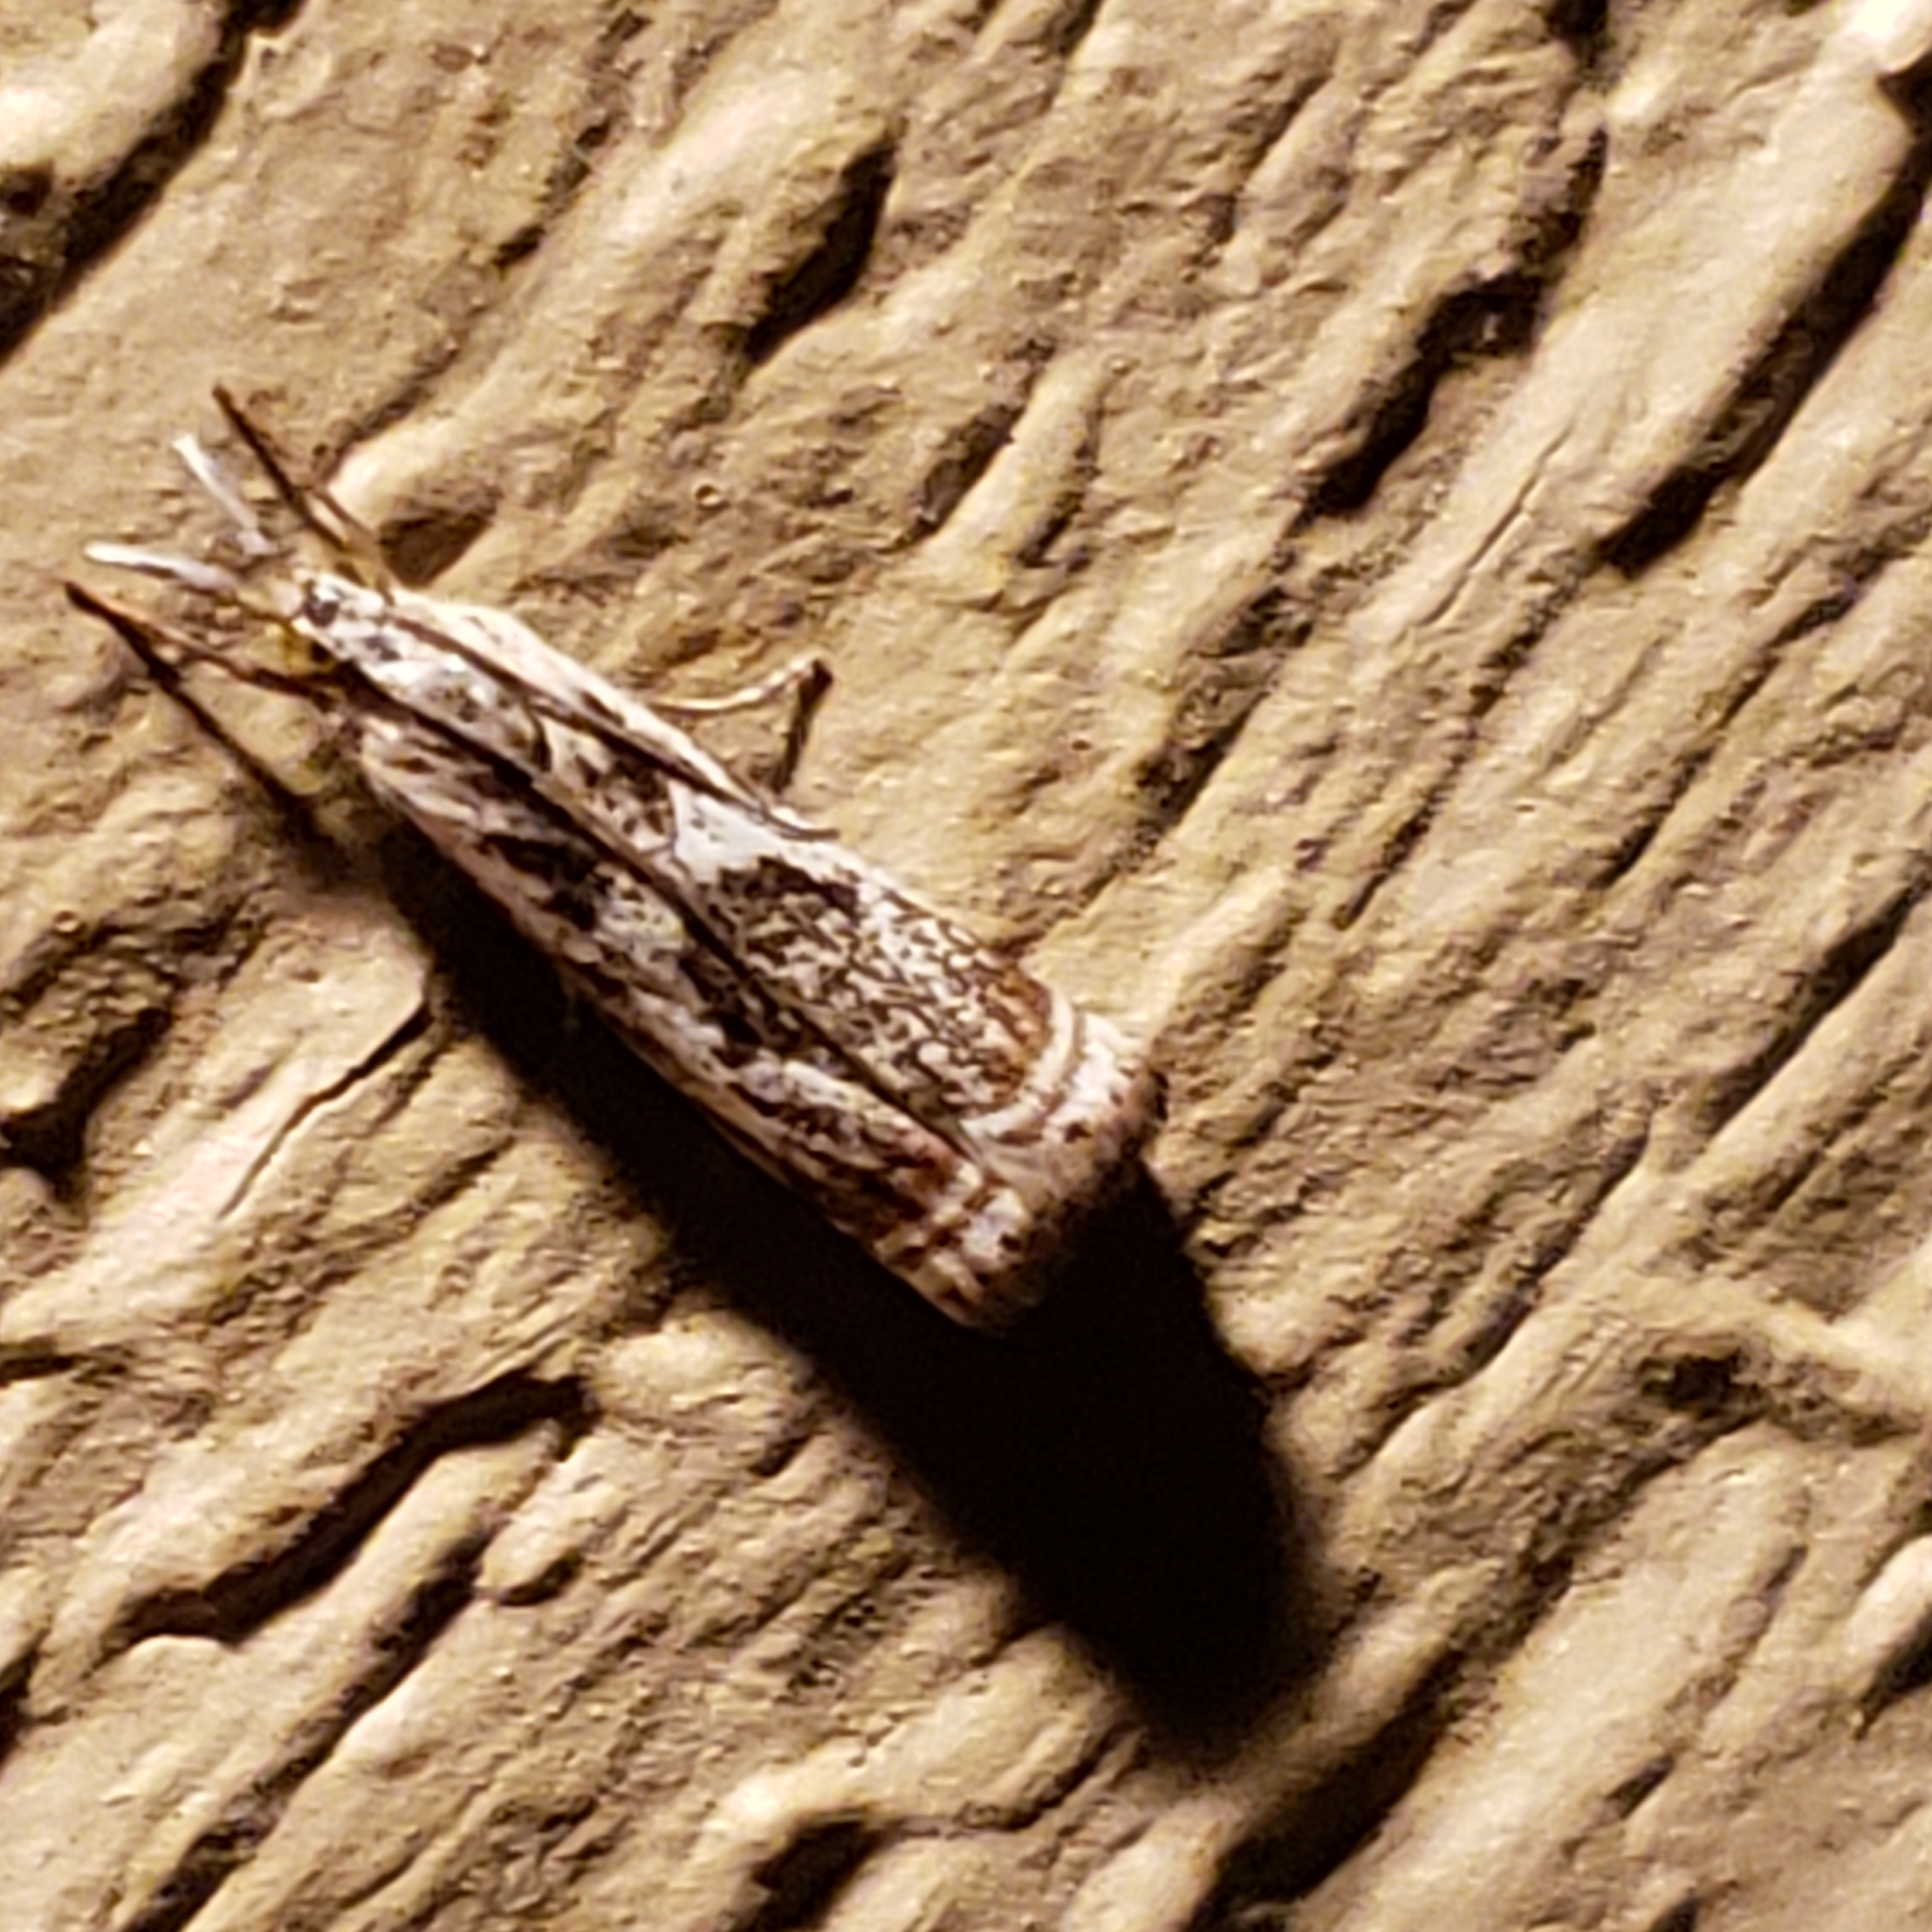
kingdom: Animalia
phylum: Arthropoda
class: Insecta
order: Lepidoptera
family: Crambidae
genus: Microcrambus
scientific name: Microcrambus elegans
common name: Elegant grass-veneer
